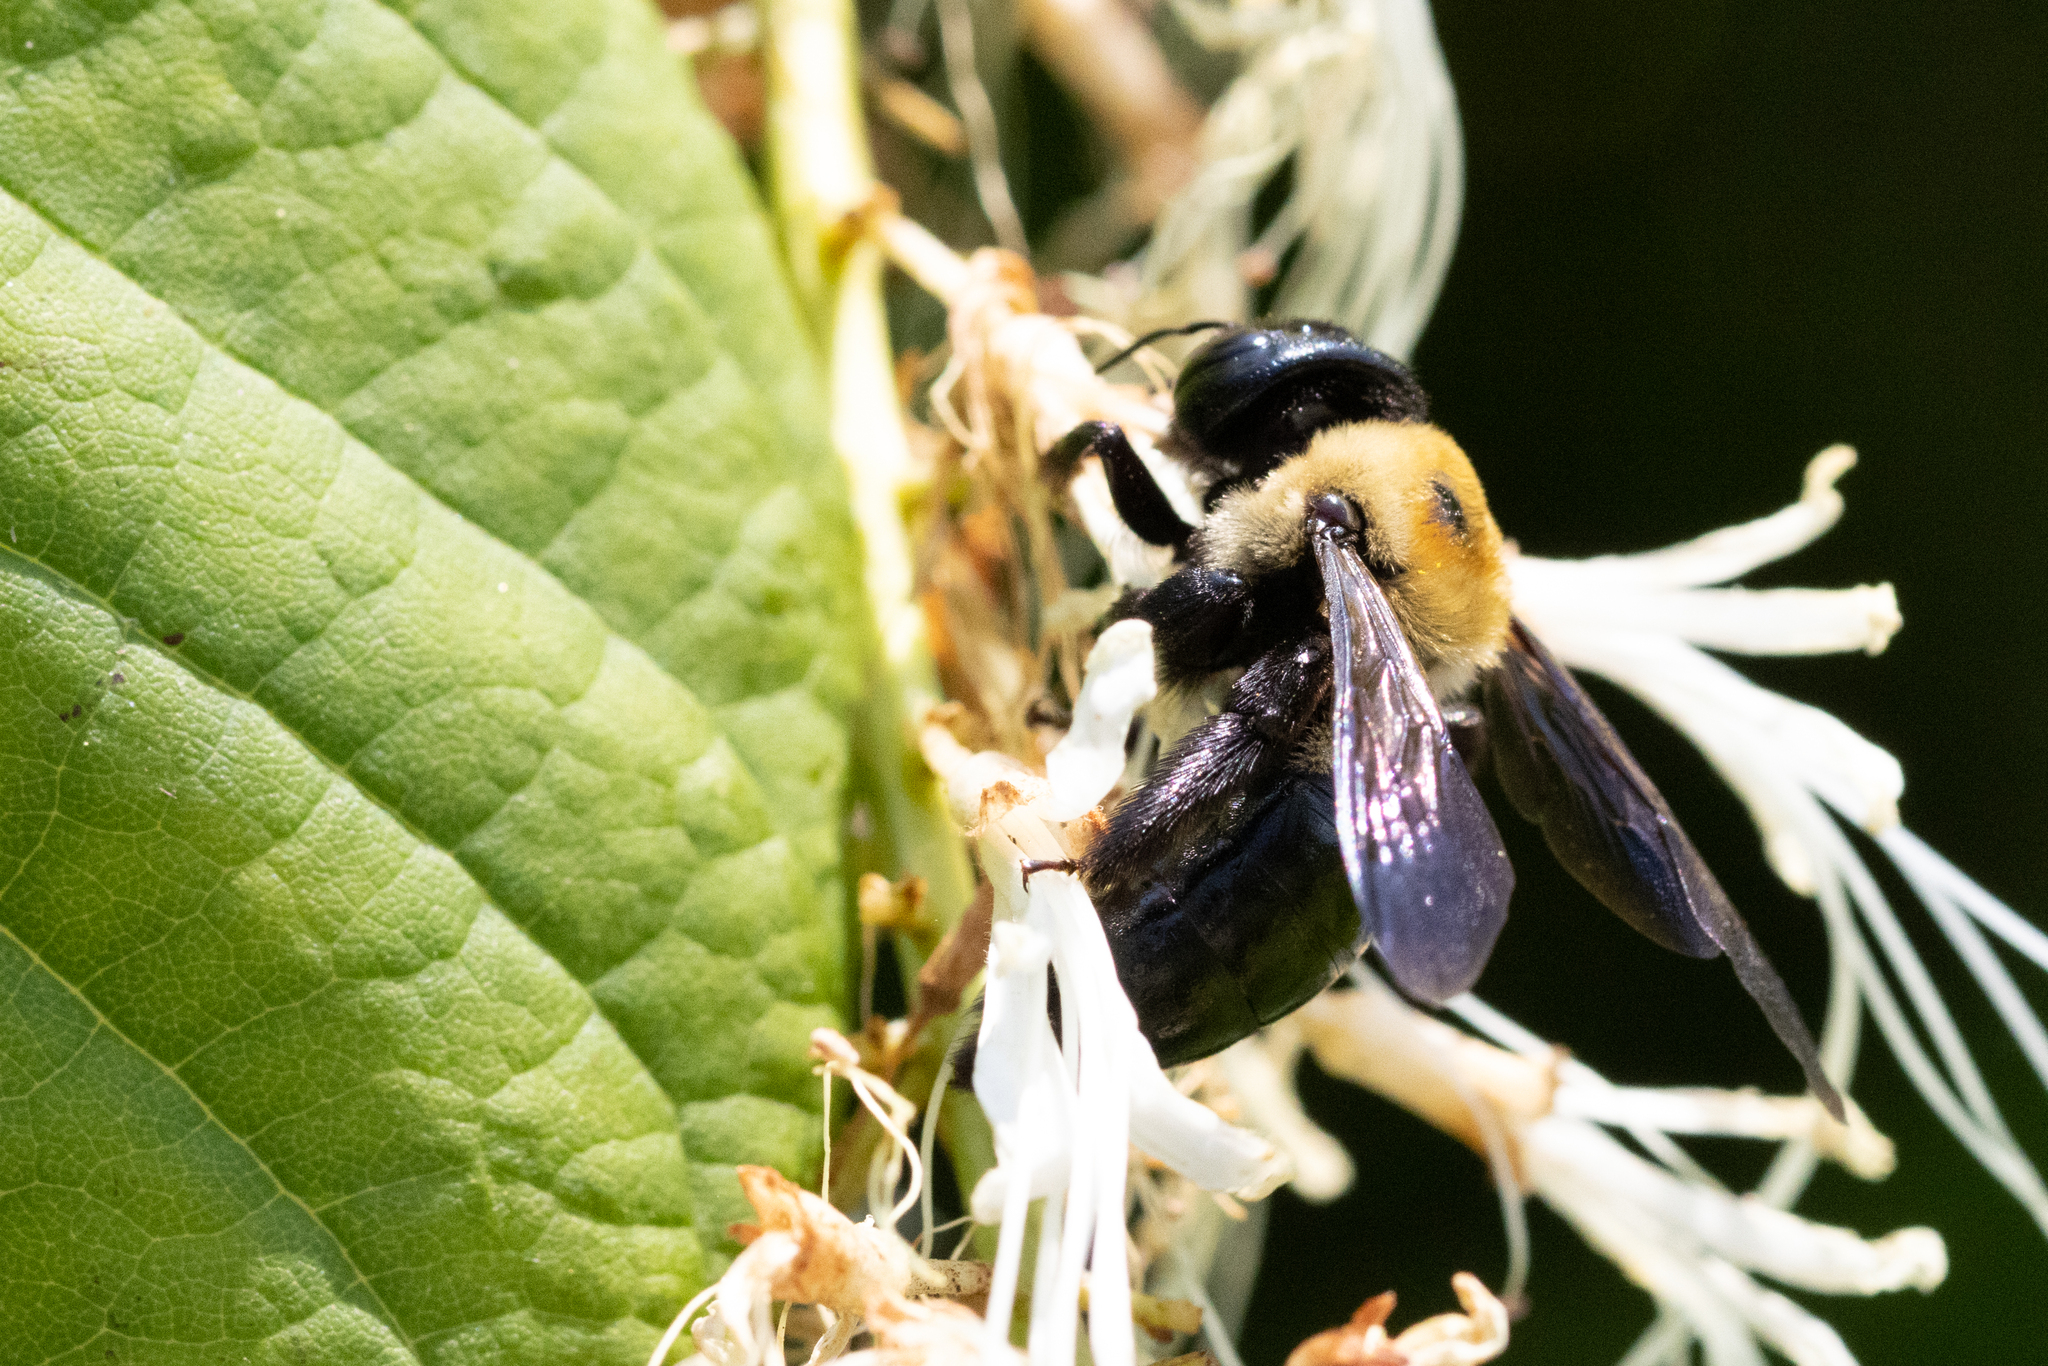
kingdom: Animalia
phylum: Arthropoda
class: Insecta
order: Hymenoptera
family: Apidae
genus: Xylocopa
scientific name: Xylocopa virginica
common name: Carpenter bee
